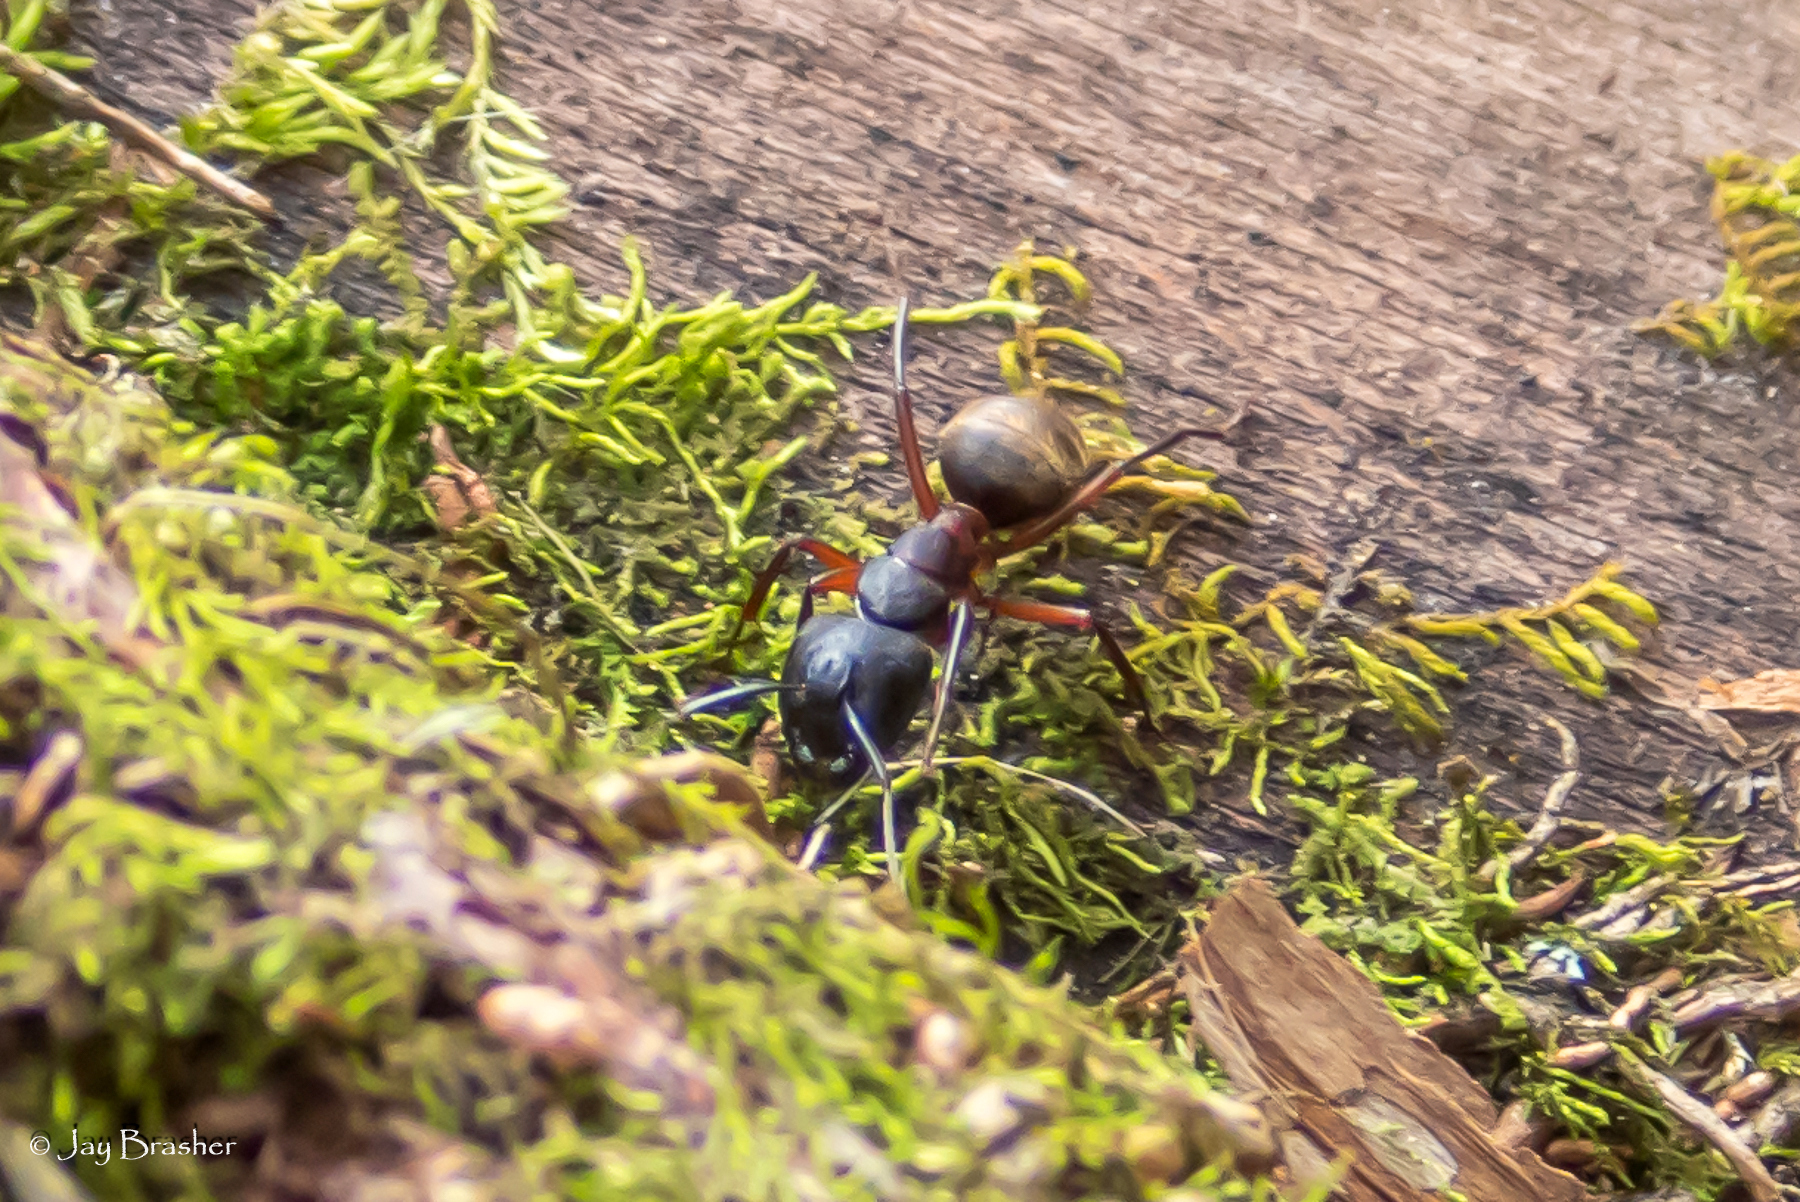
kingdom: Animalia
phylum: Arthropoda
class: Insecta
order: Hymenoptera
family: Formicidae
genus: Camponotus
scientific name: Camponotus chromaiodes
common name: Red carpenter ant
